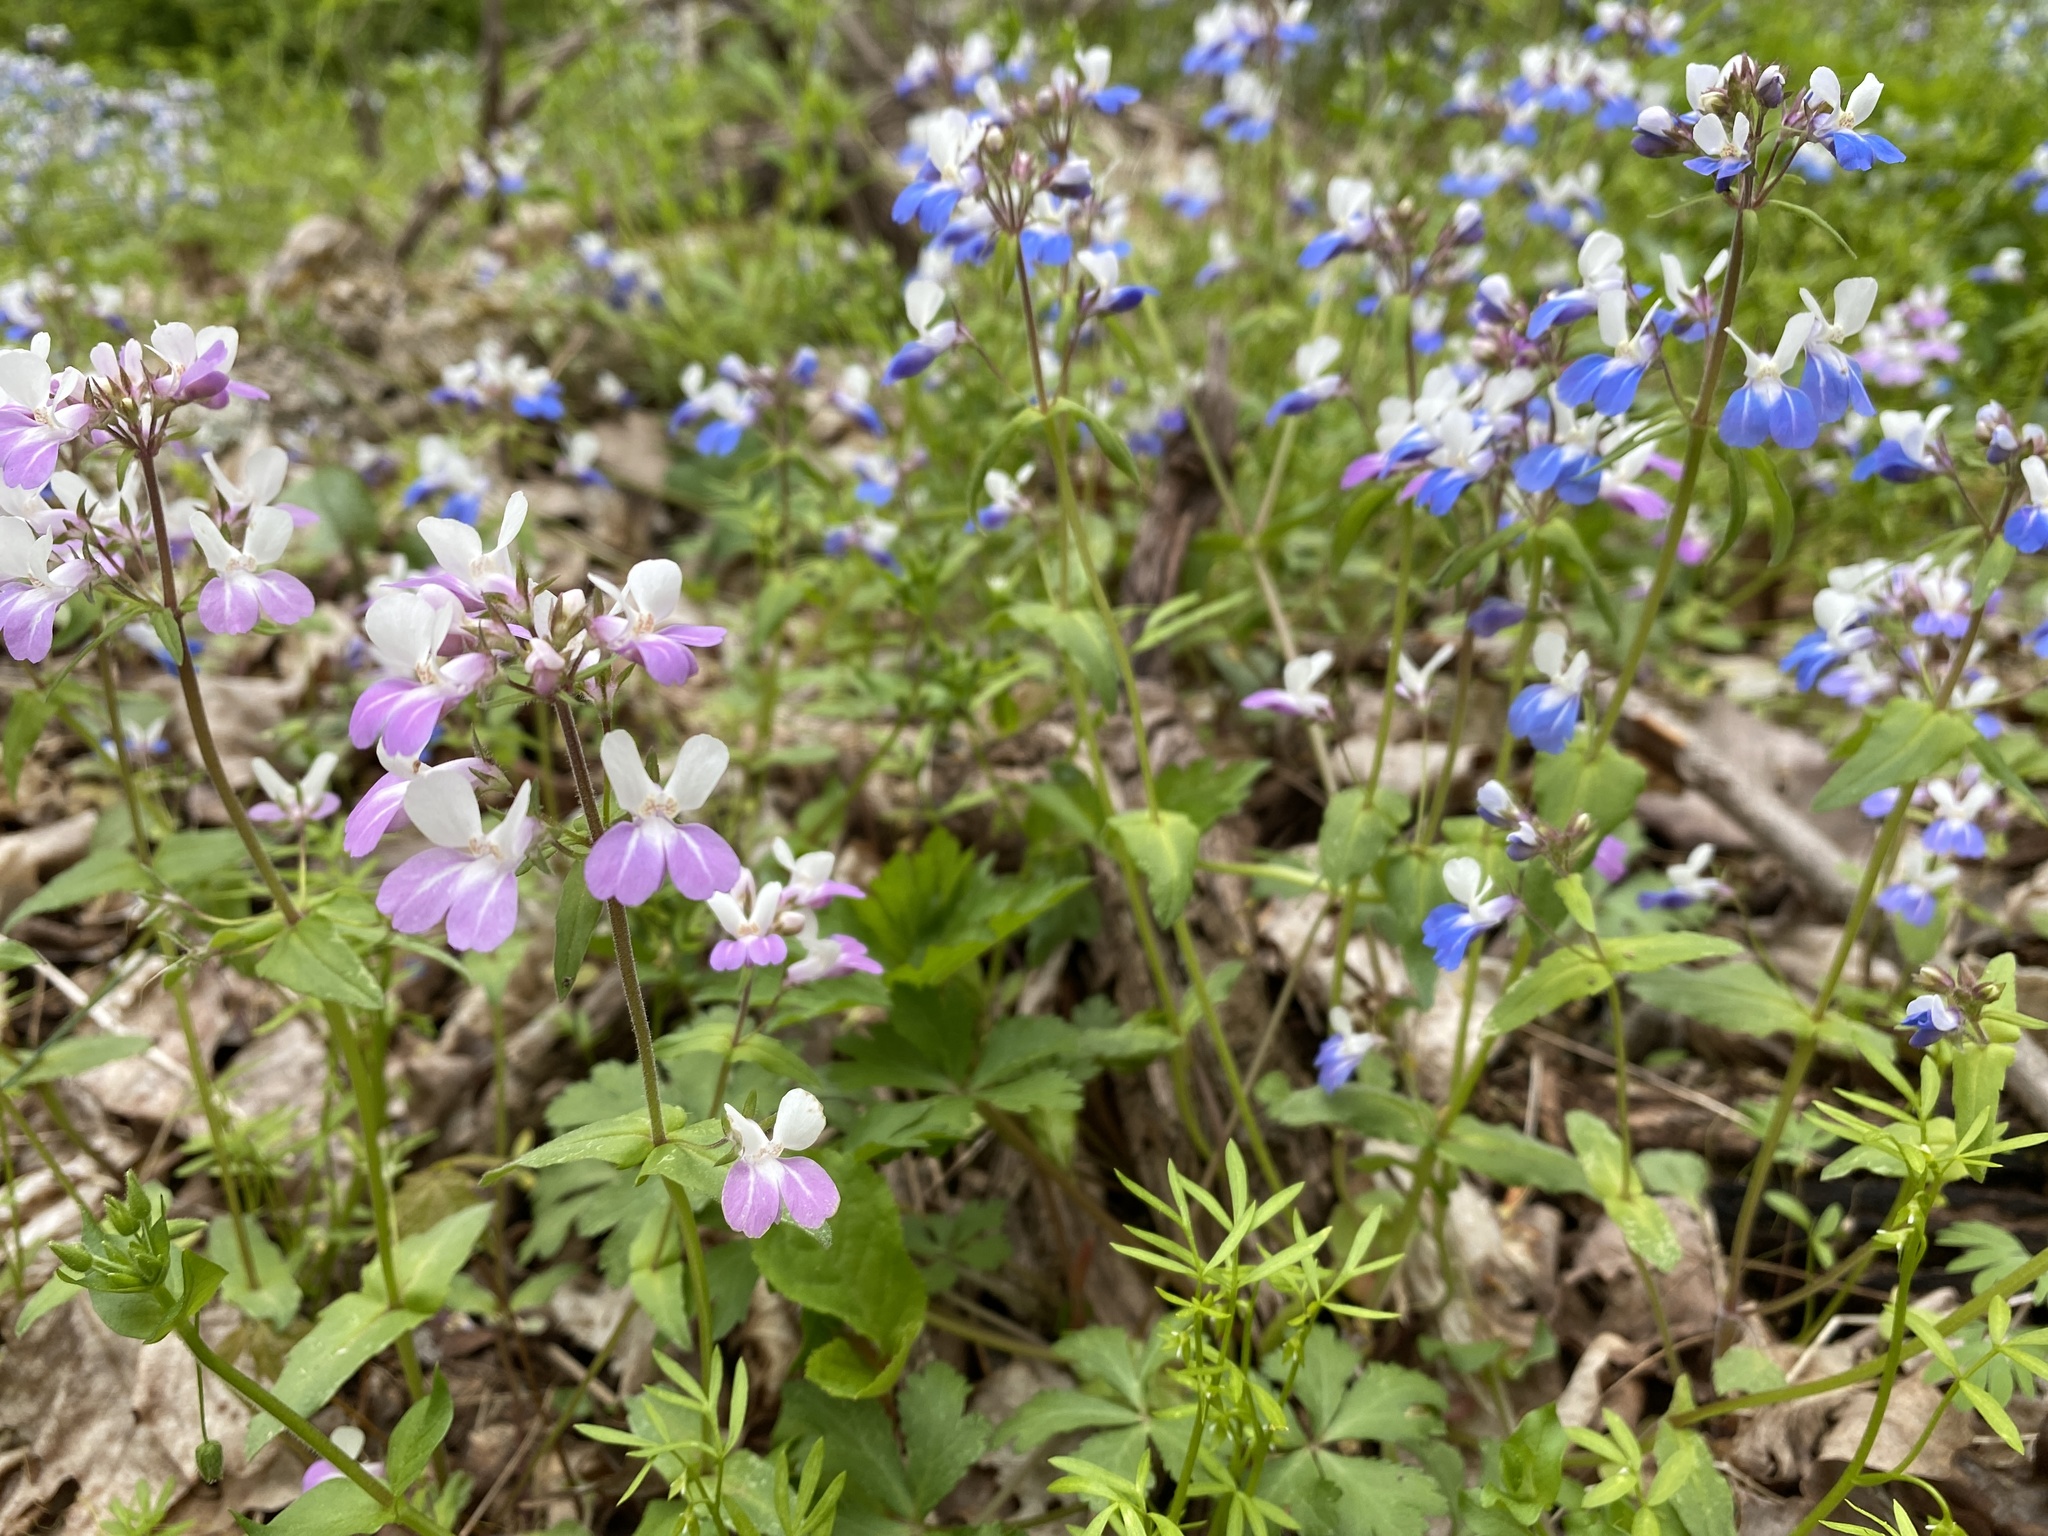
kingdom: Plantae
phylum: Tracheophyta
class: Magnoliopsida
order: Lamiales
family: Plantaginaceae
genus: Collinsia
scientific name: Collinsia verna
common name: Broad-leaved collinsia
